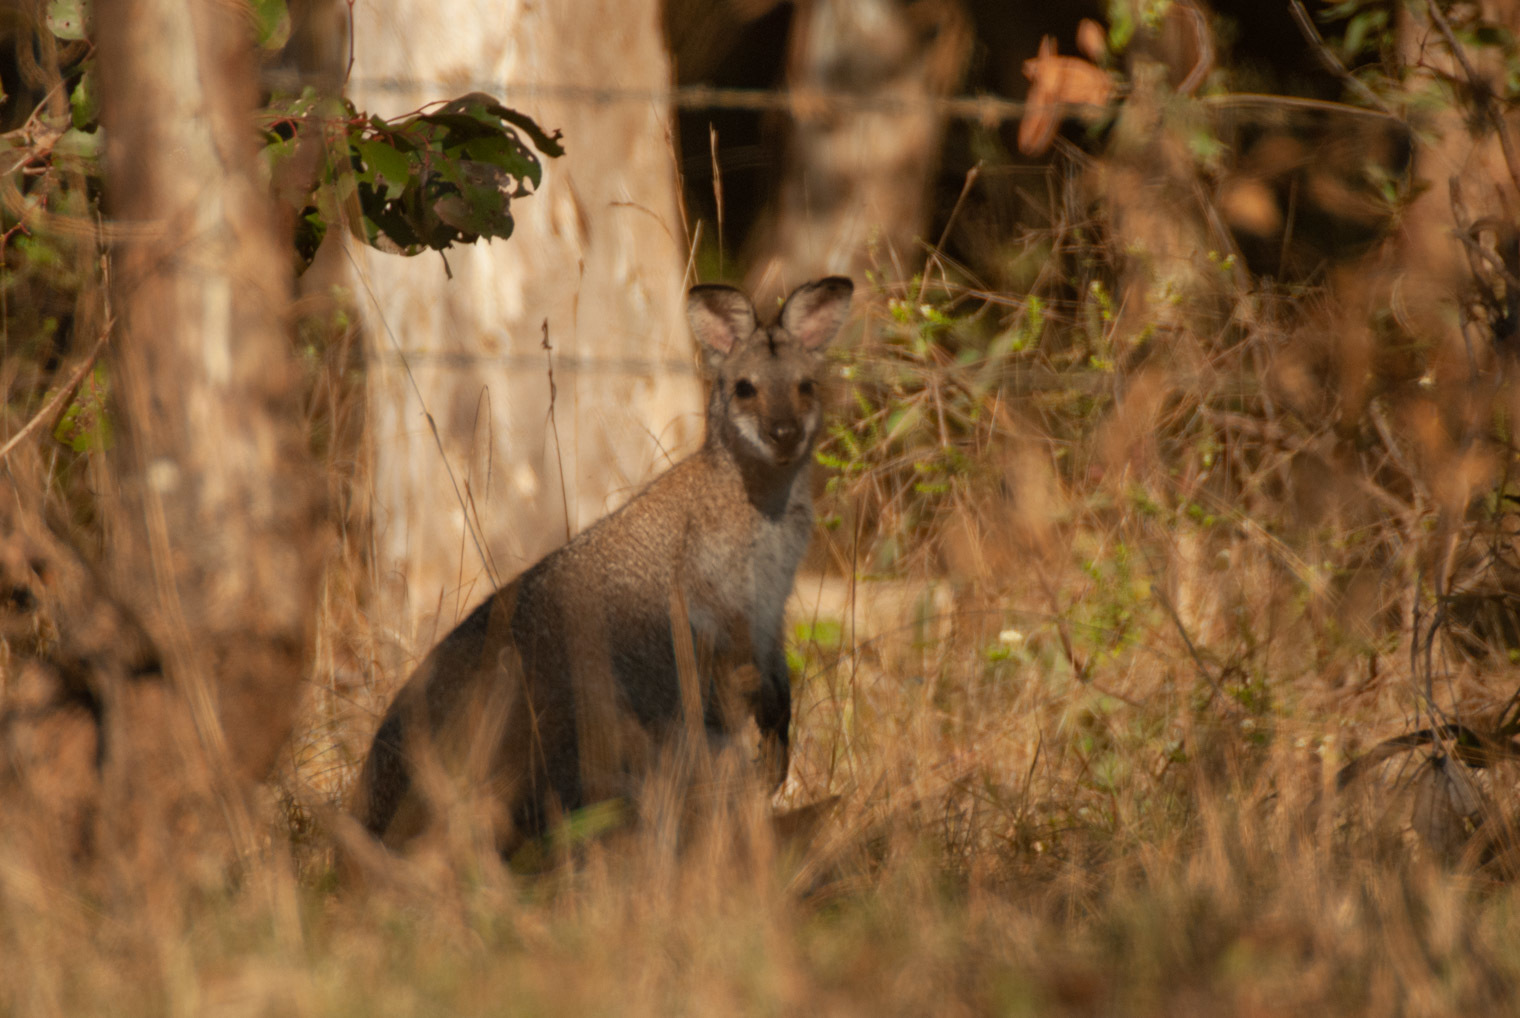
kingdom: Animalia
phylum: Chordata
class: Mammalia
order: Diprotodontia
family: Macropodidae
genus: Notamacropus
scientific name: Notamacropus rufogriseus
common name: Red-necked wallaby
